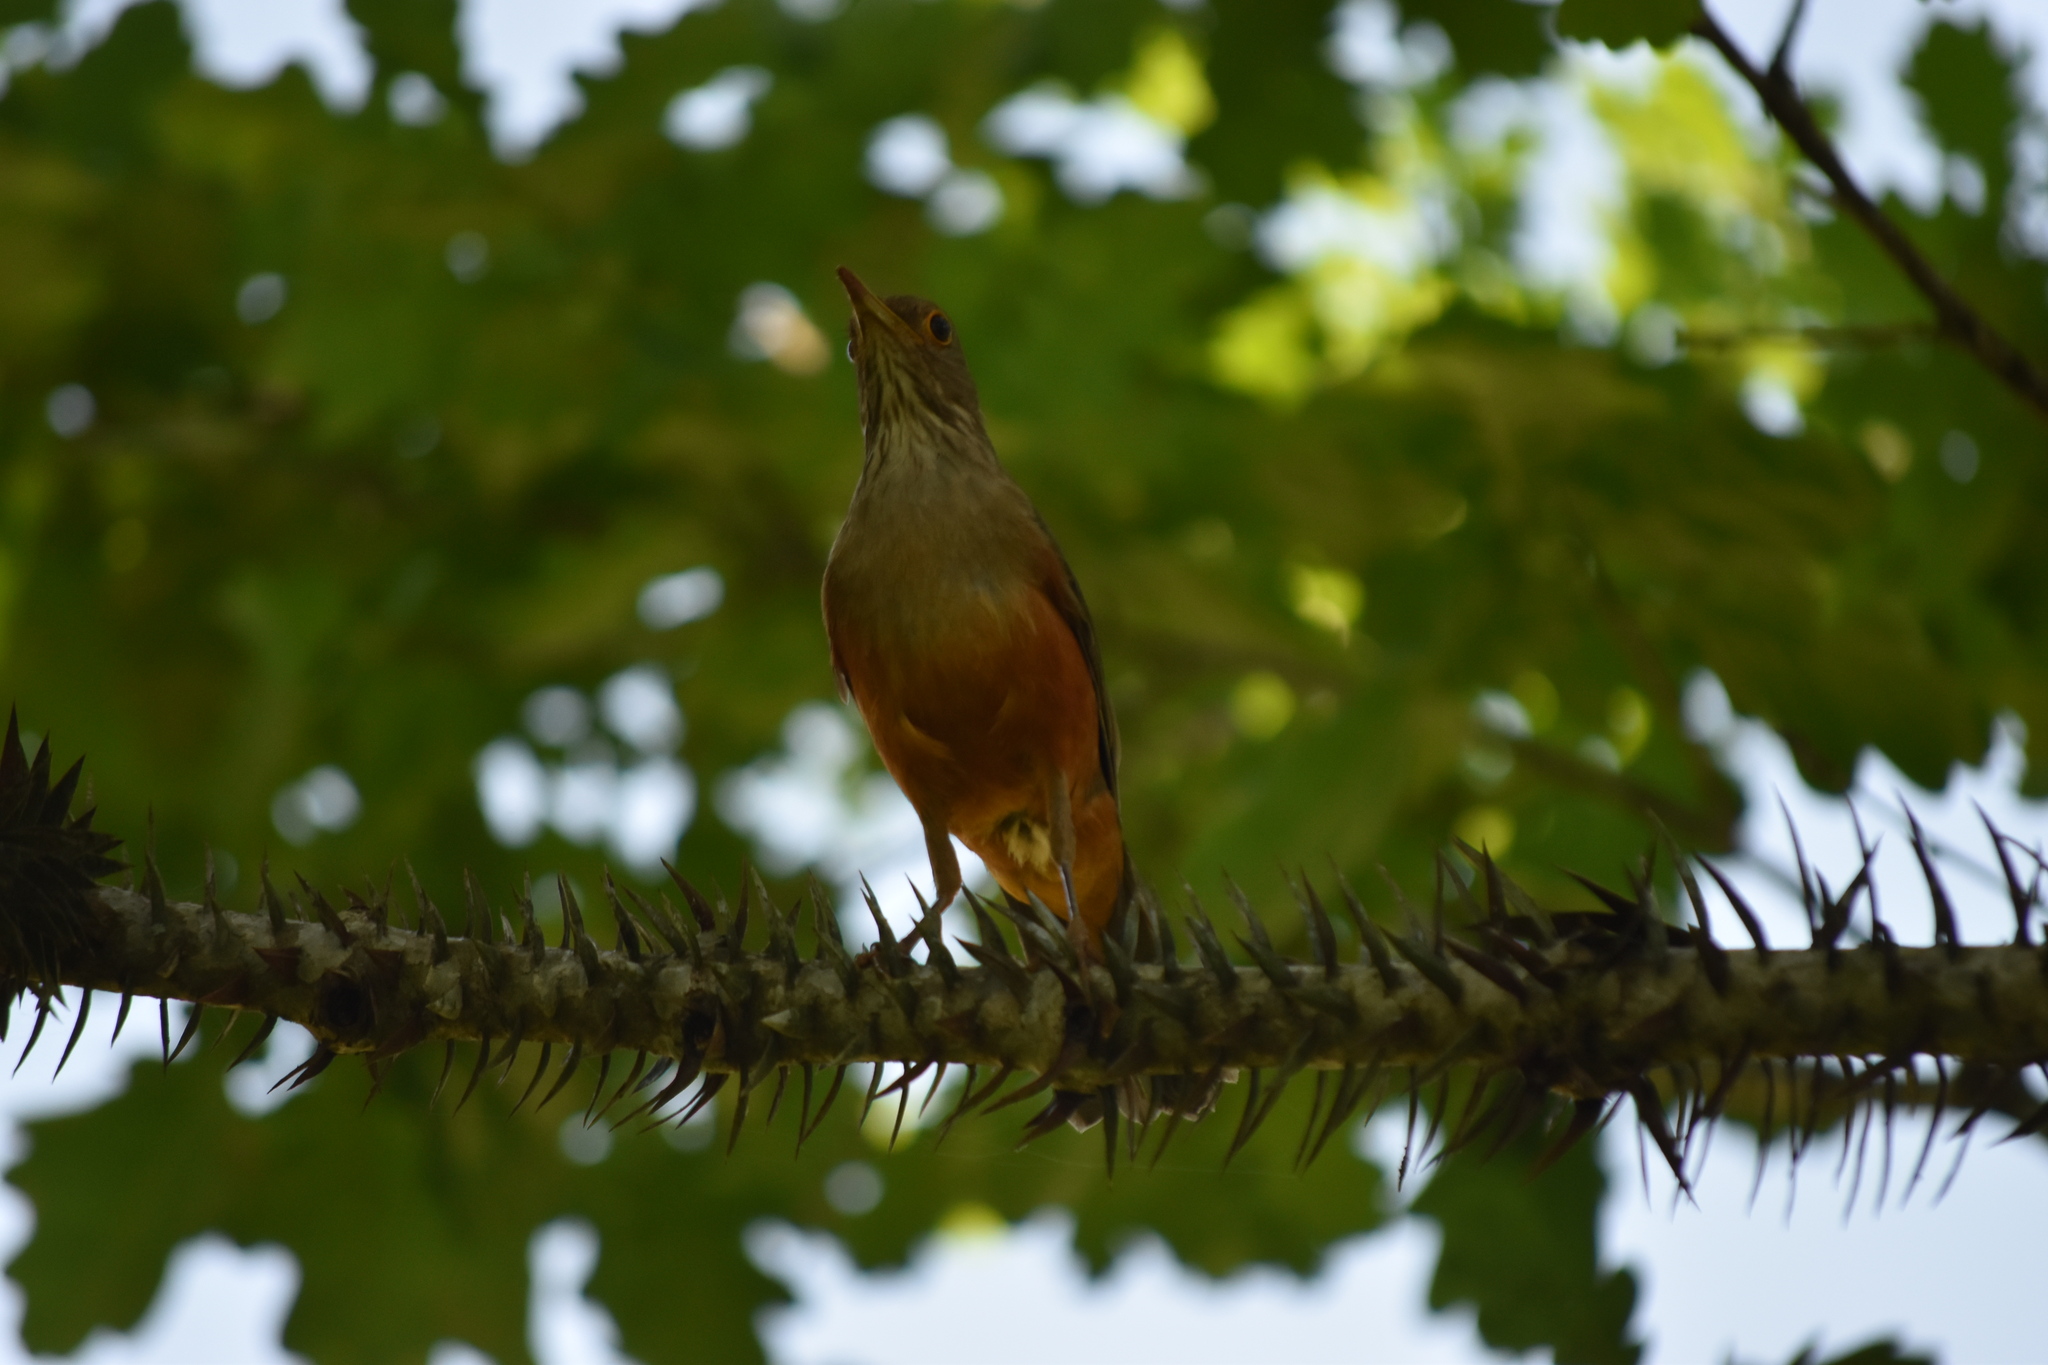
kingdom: Animalia
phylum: Chordata
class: Aves
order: Passeriformes
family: Turdidae
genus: Turdus
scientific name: Turdus rufiventris
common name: Rufous-bellied thrush
